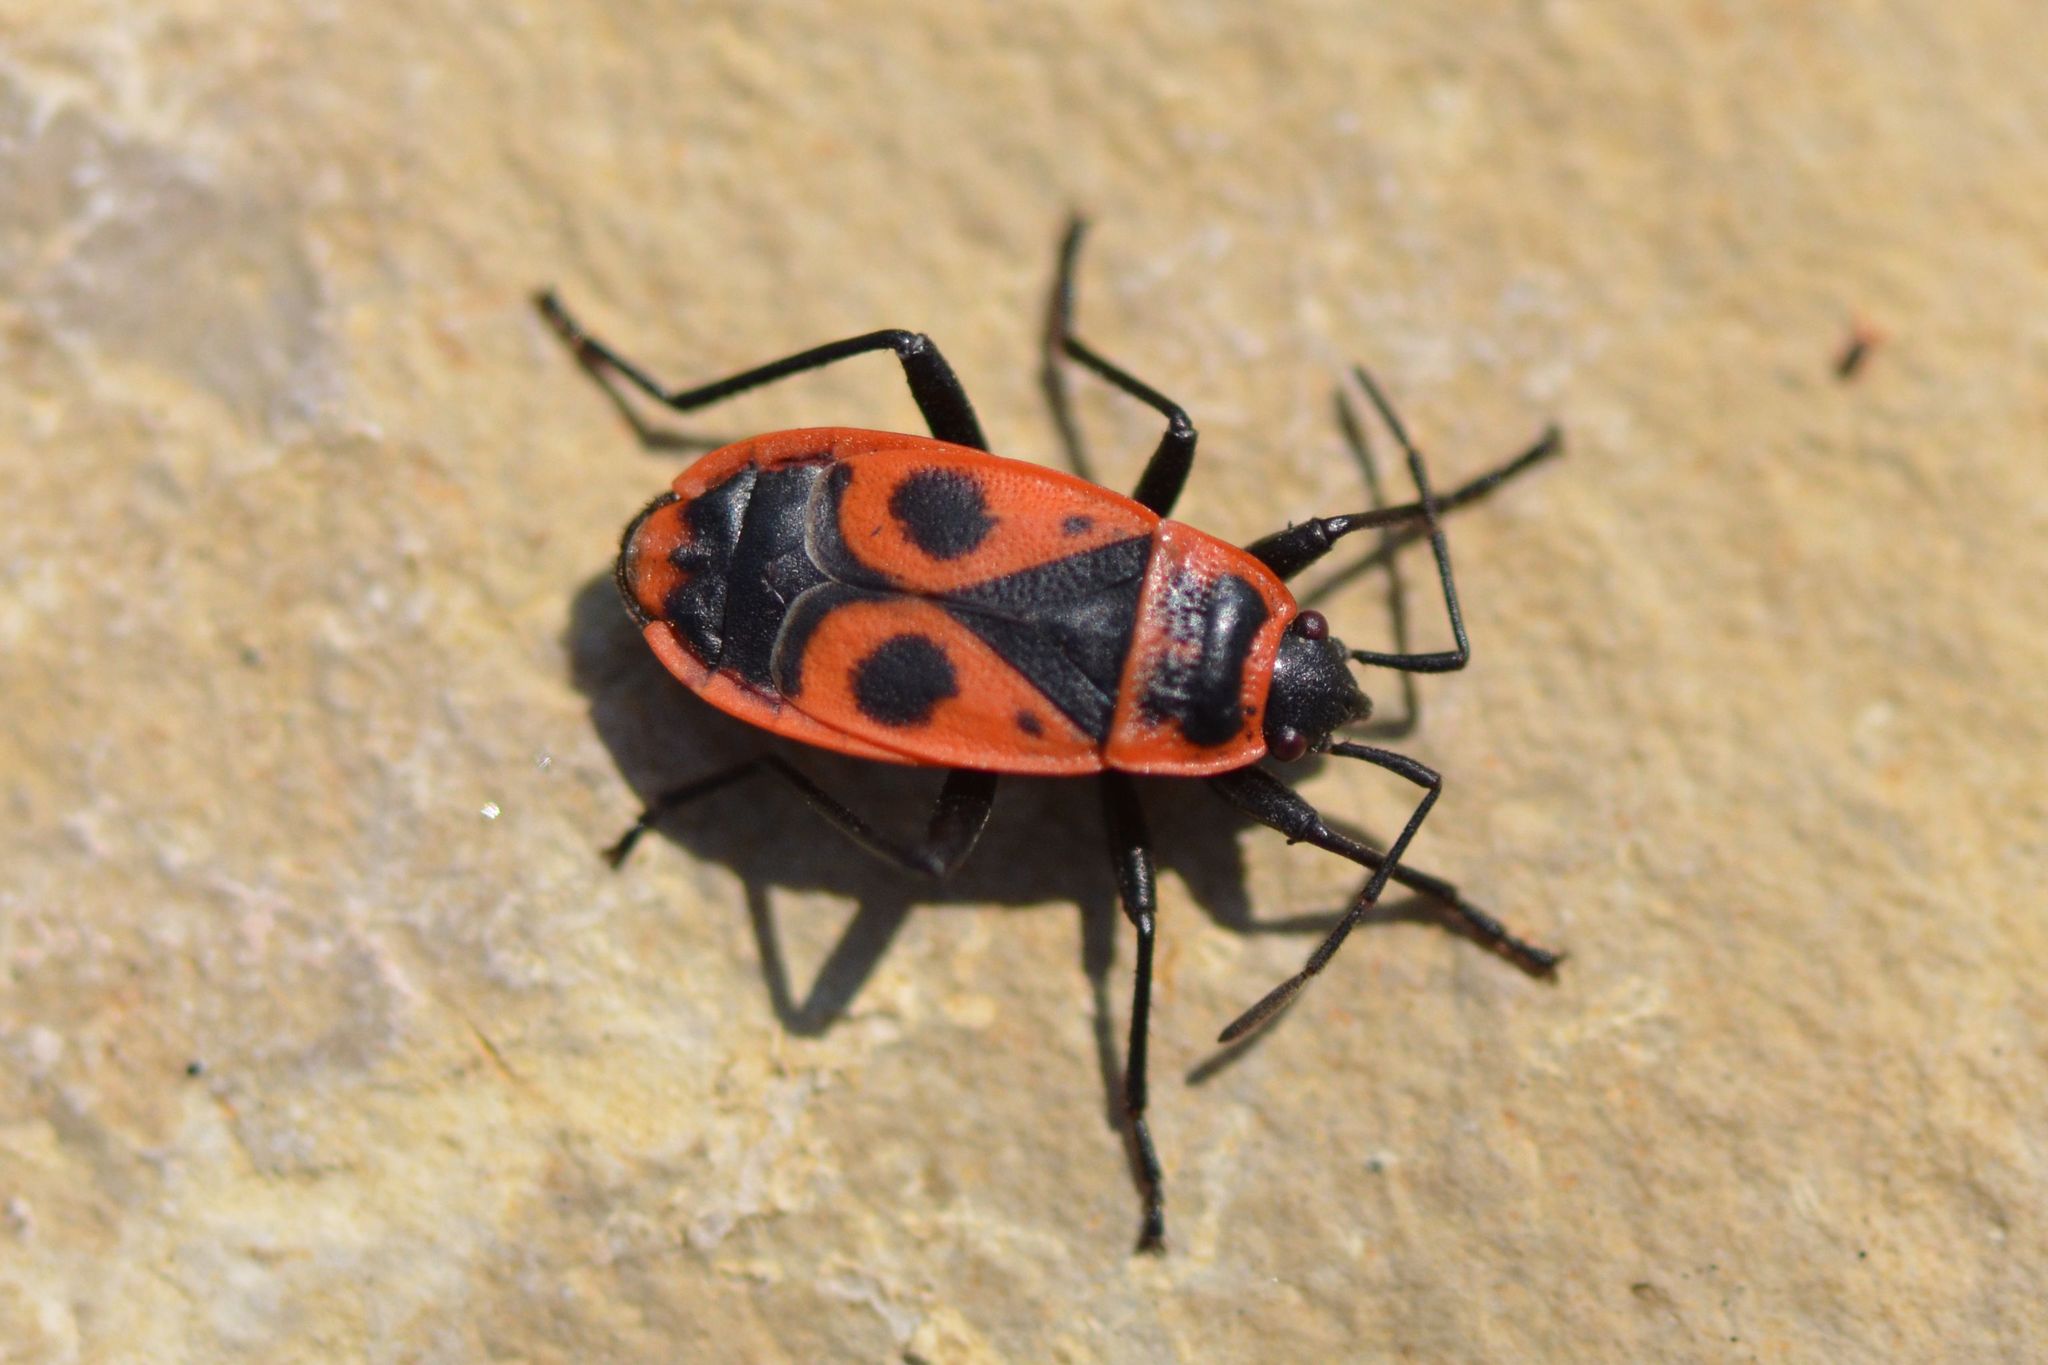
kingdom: Animalia
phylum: Arthropoda
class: Insecta
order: Hemiptera
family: Pyrrhocoridae
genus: Pyrrhocoris
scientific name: Pyrrhocoris apterus
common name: Firebug
